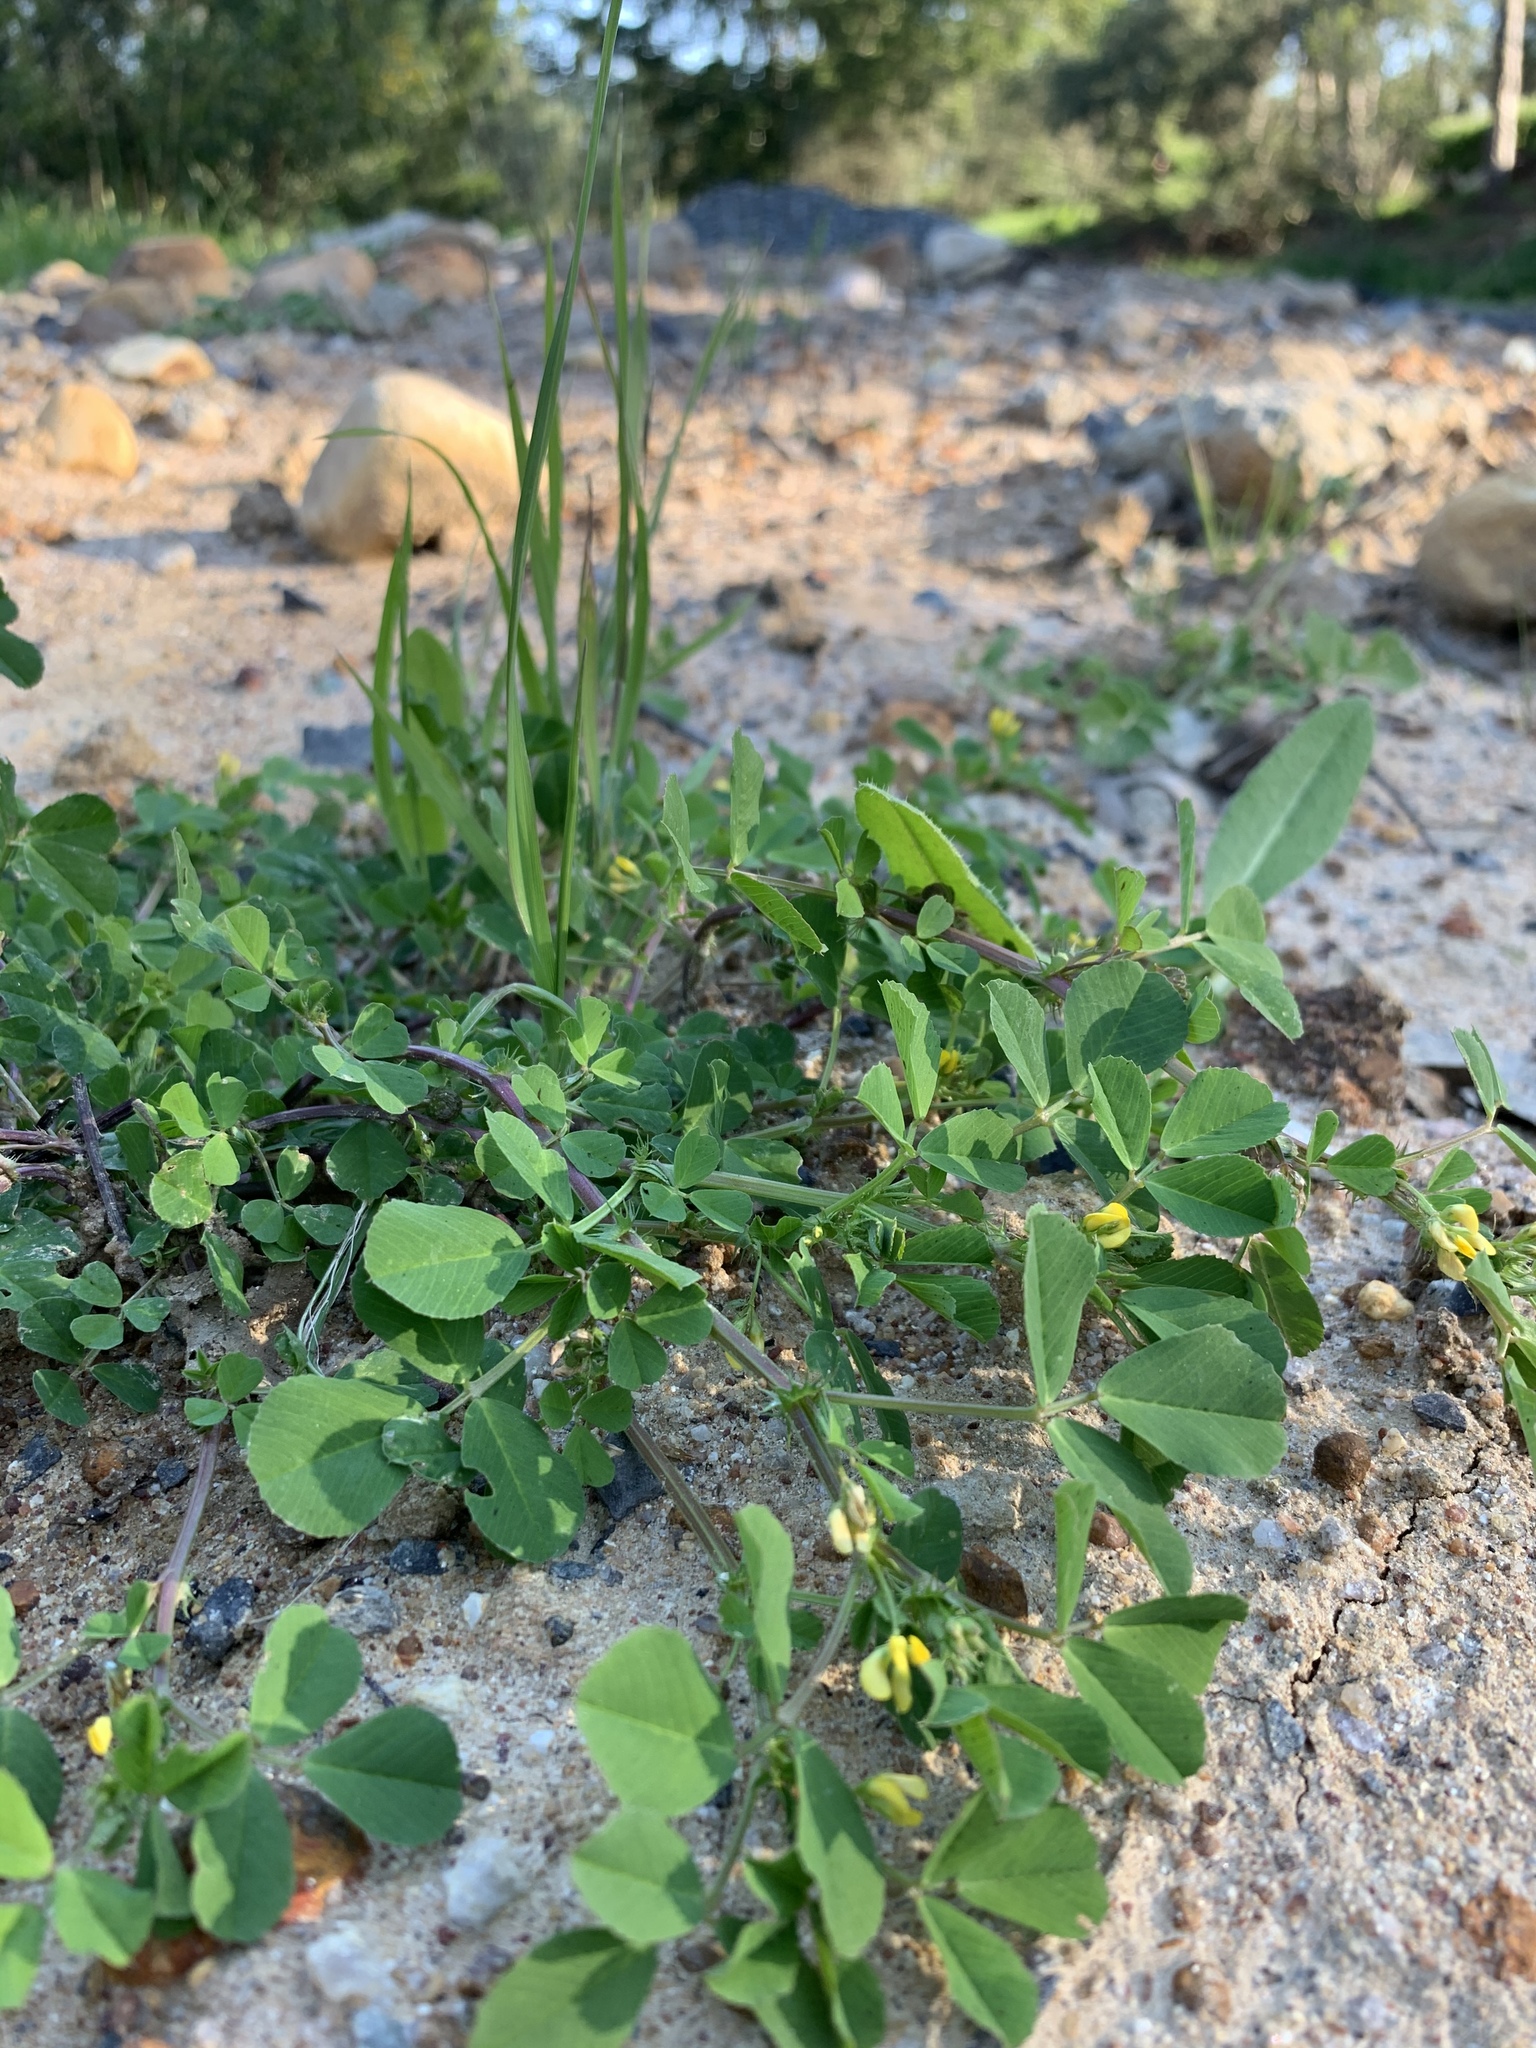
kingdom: Plantae
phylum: Tracheophyta
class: Magnoliopsida
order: Fabales
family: Fabaceae
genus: Medicago
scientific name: Medicago polymorpha
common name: Burclover
